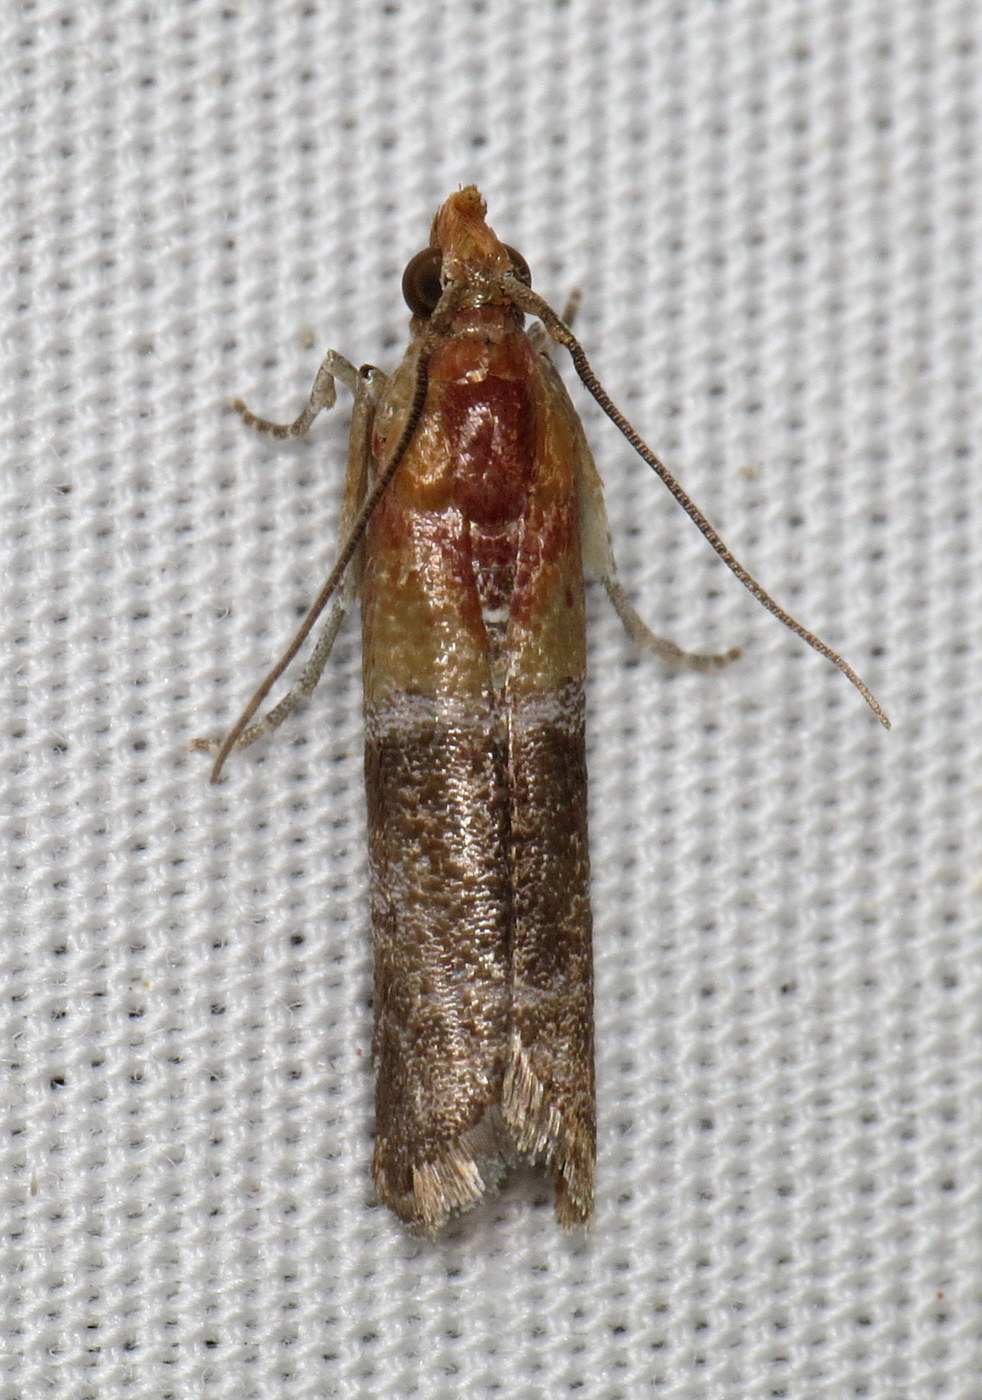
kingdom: Animalia
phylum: Arthropoda
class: Insecta
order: Lepidoptera
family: Pyralidae
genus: Moodna
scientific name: Moodna pallidostrinella
